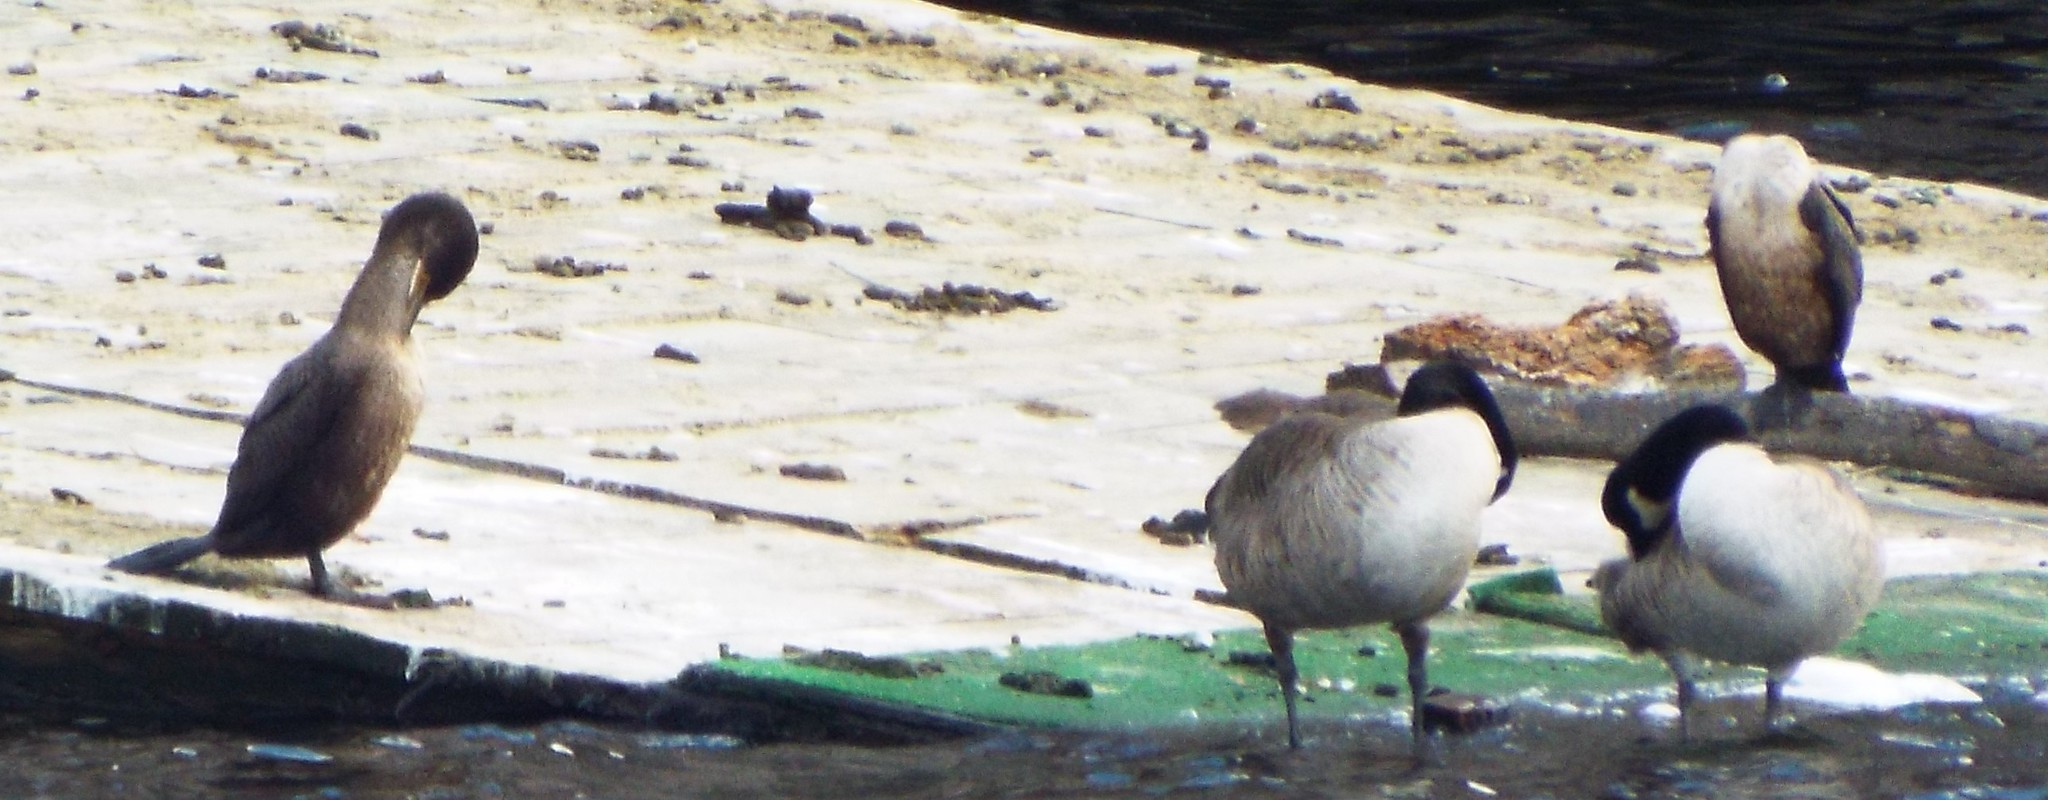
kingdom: Animalia
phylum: Chordata
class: Aves
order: Suliformes
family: Phalacrocoracidae
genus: Phalacrocorax
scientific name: Phalacrocorax auritus
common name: Double-crested cormorant
